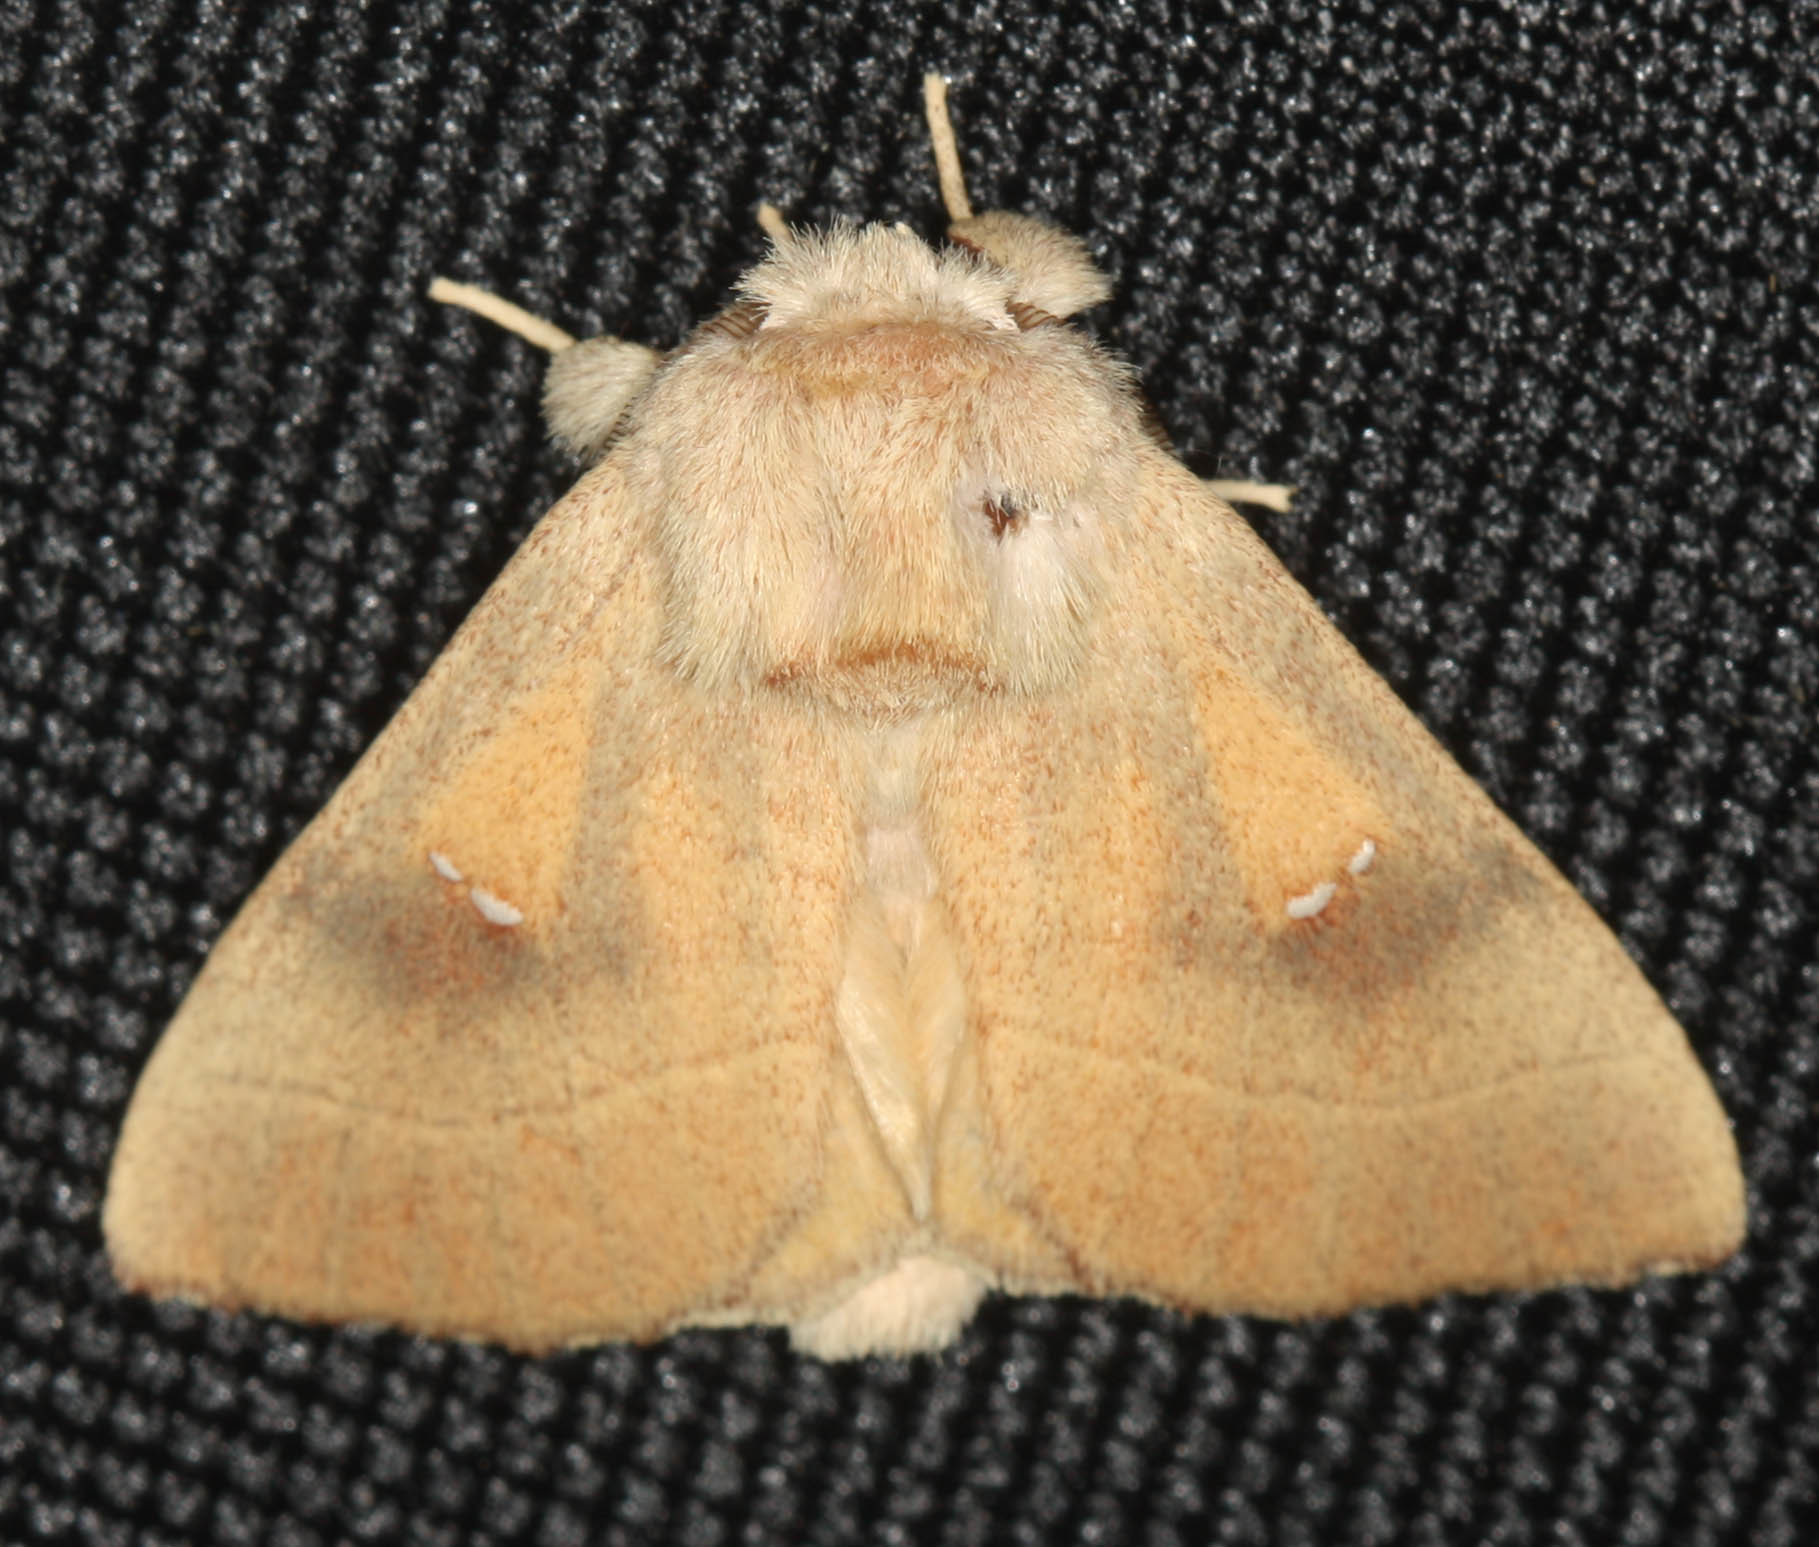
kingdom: Animalia
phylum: Arthropoda
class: Insecta
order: Lepidoptera
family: Notodontidae
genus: Nadata
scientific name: Nadata gibbosa
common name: White-dotted prominent
